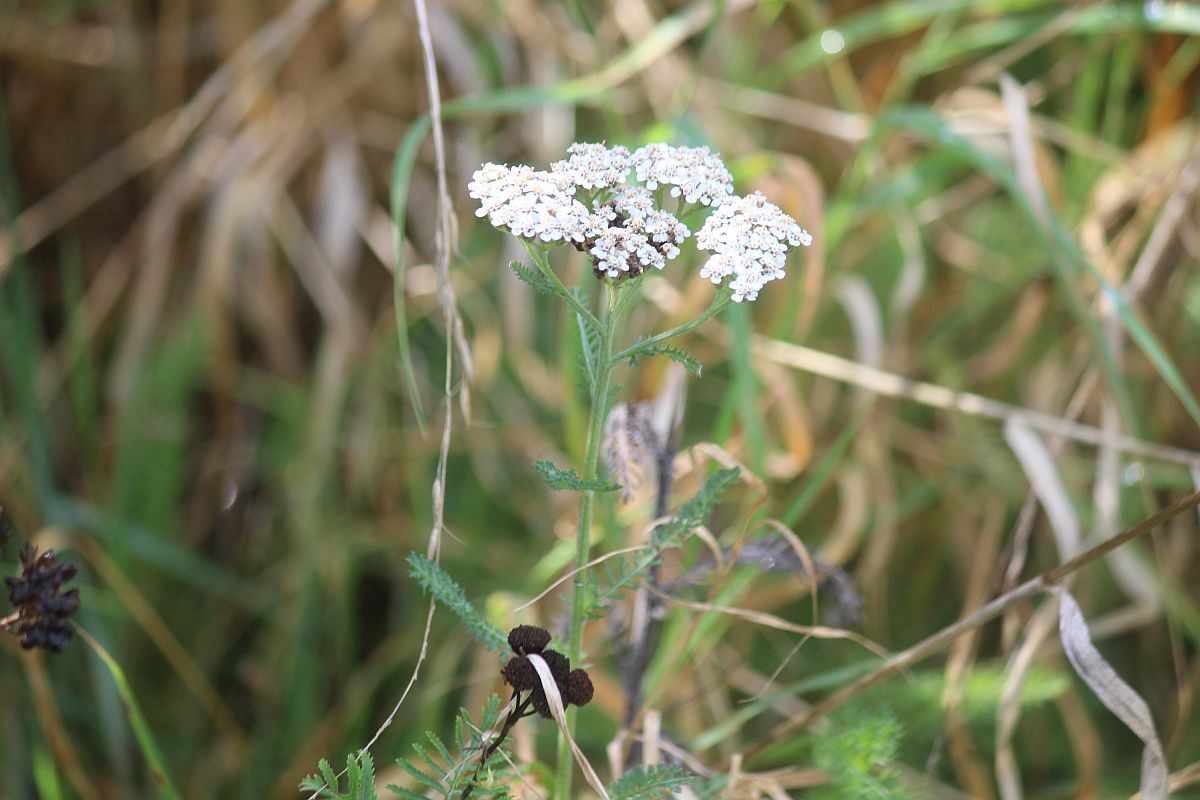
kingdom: Plantae
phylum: Tracheophyta
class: Magnoliopsida
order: Asterales
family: Asteraceae
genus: Achillea
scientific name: Achillea millefolium
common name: Yarrow
